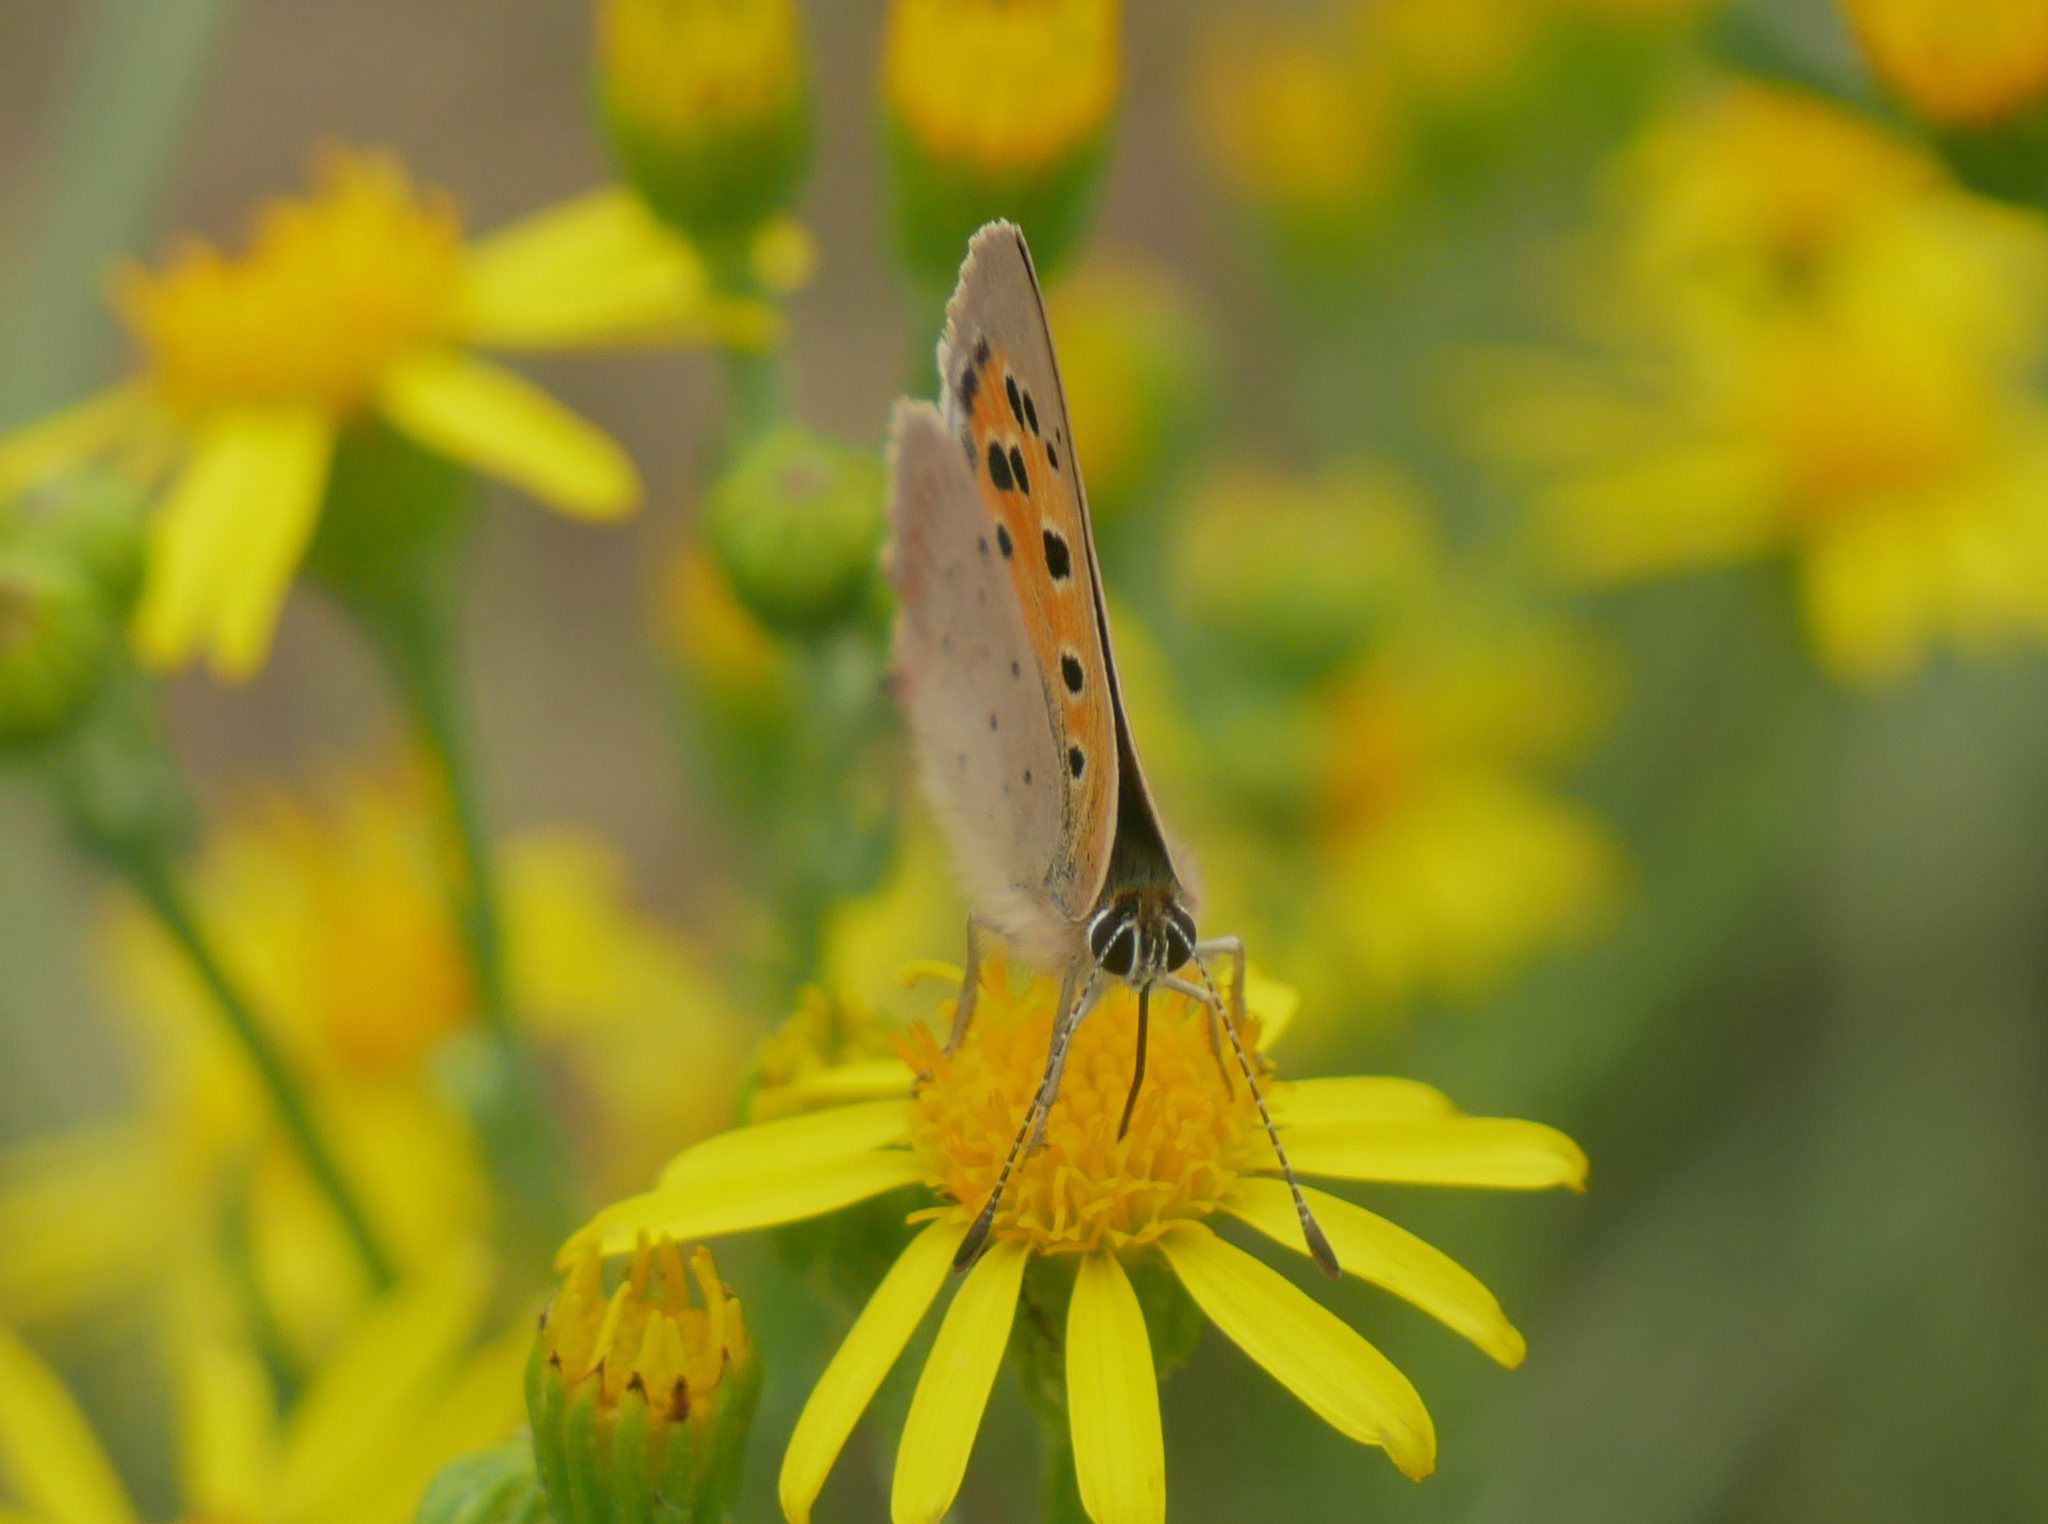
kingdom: Animalia
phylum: Arthropoda
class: Insecta
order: Lepidoptera
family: Lycaenidae
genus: Lycaena
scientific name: Lycaena phlaeas
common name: Small copper
